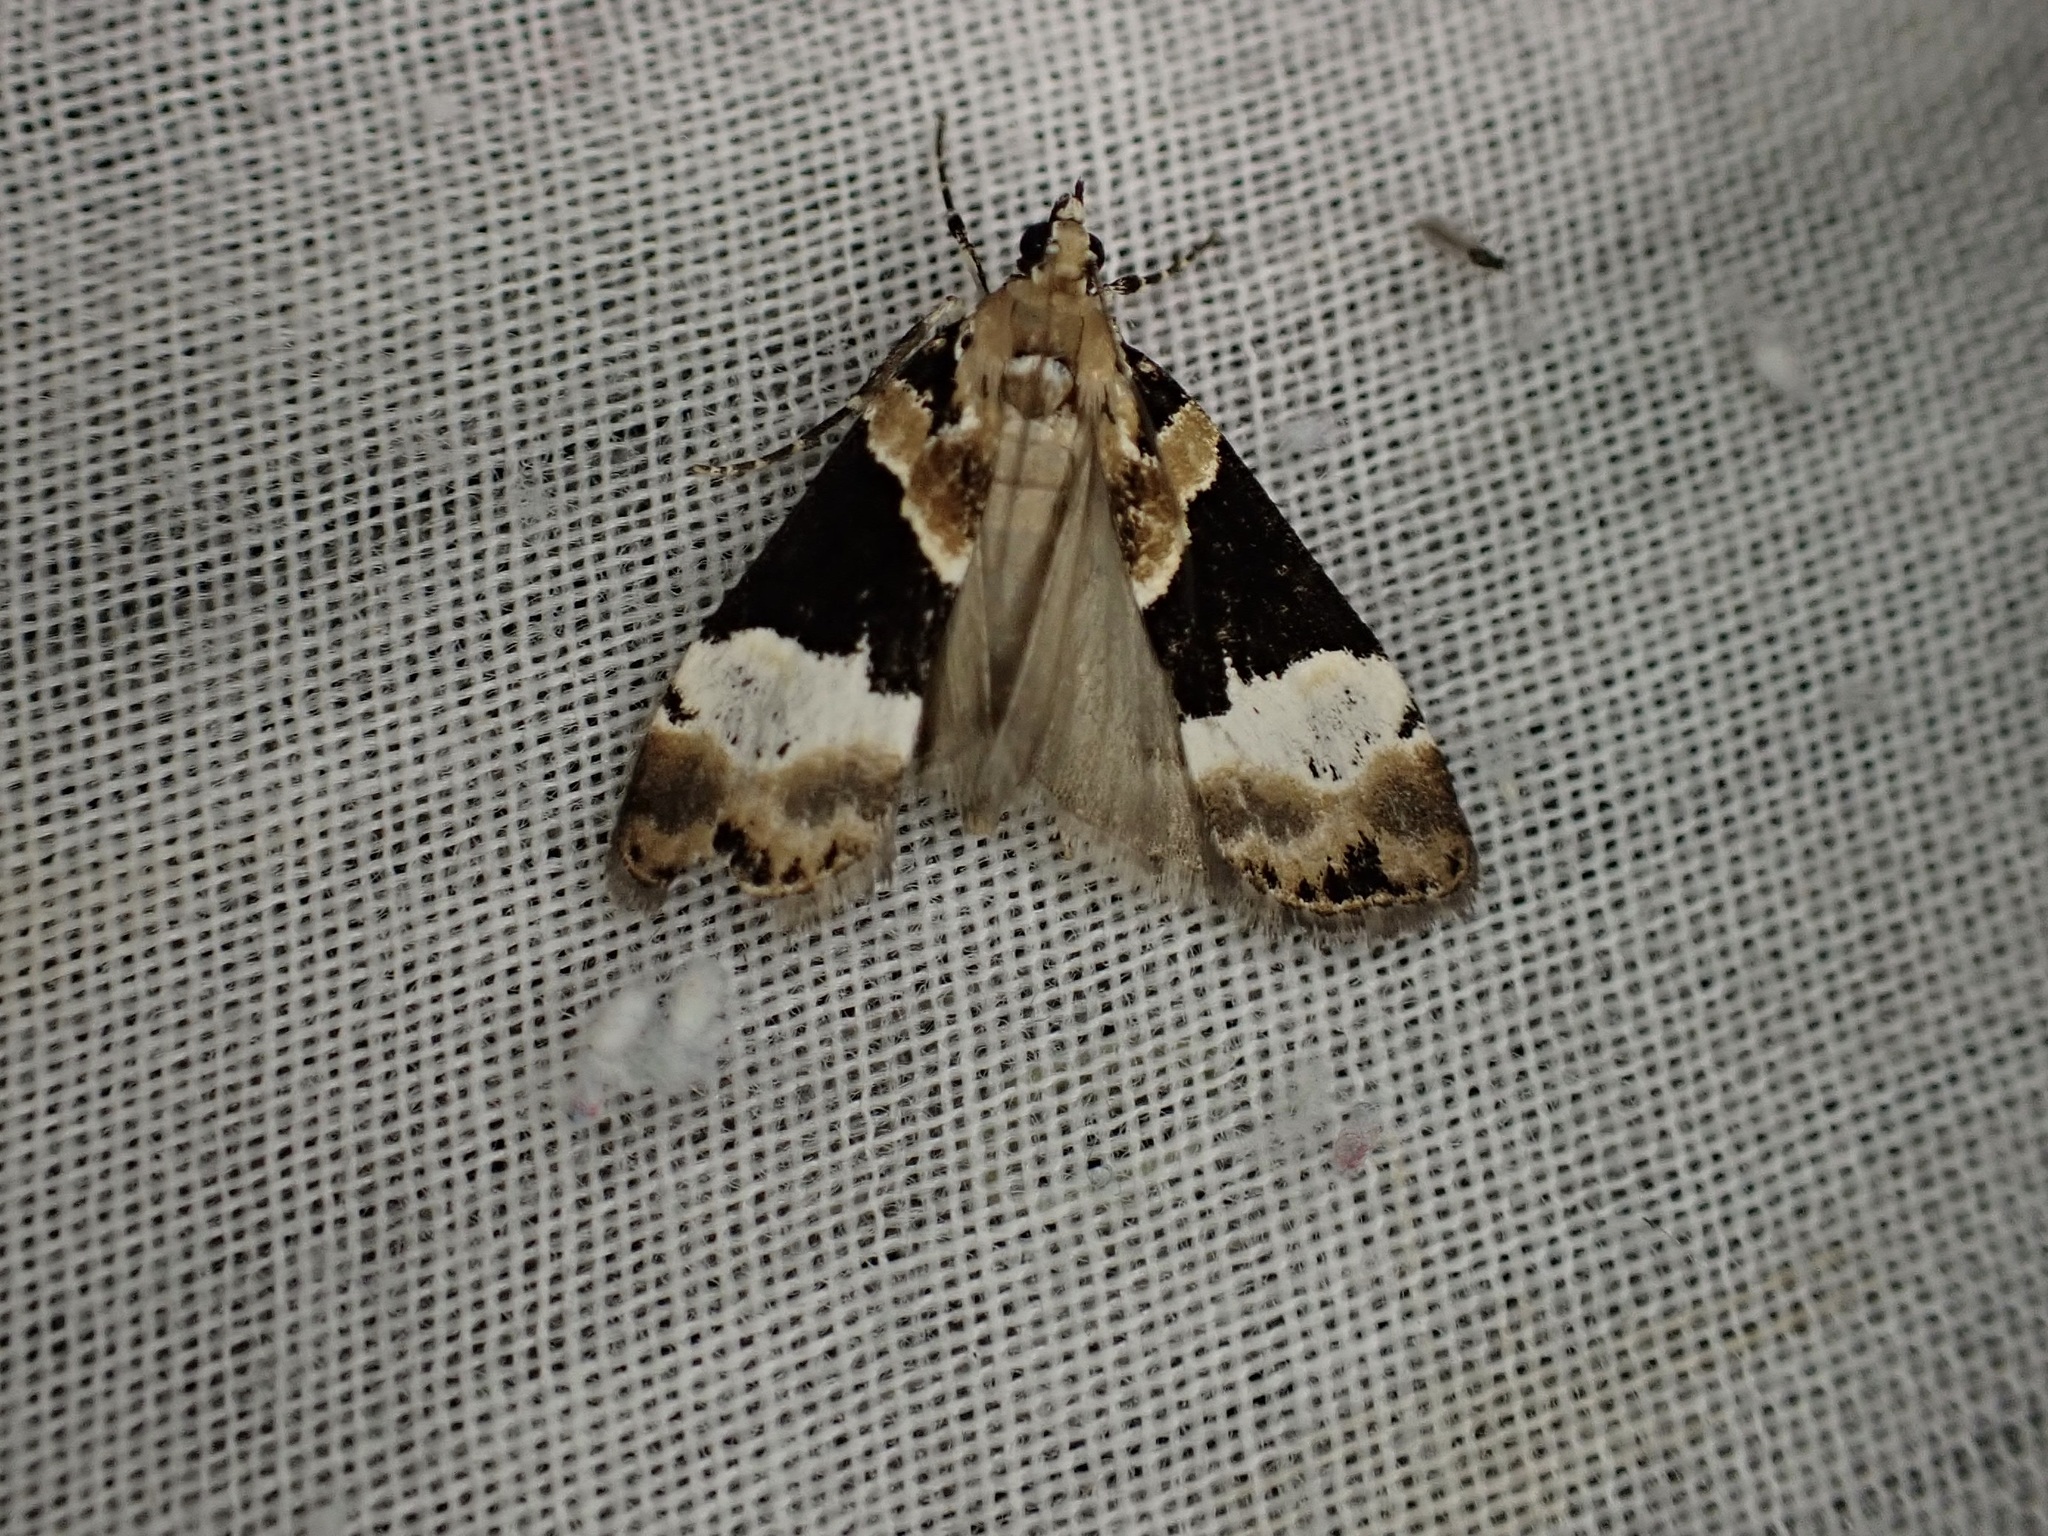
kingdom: Animalia
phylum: Arthropoda
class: Insecta
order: Lepidoptera
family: Crambidae
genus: Eudonia
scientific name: Eudonia aspidota
